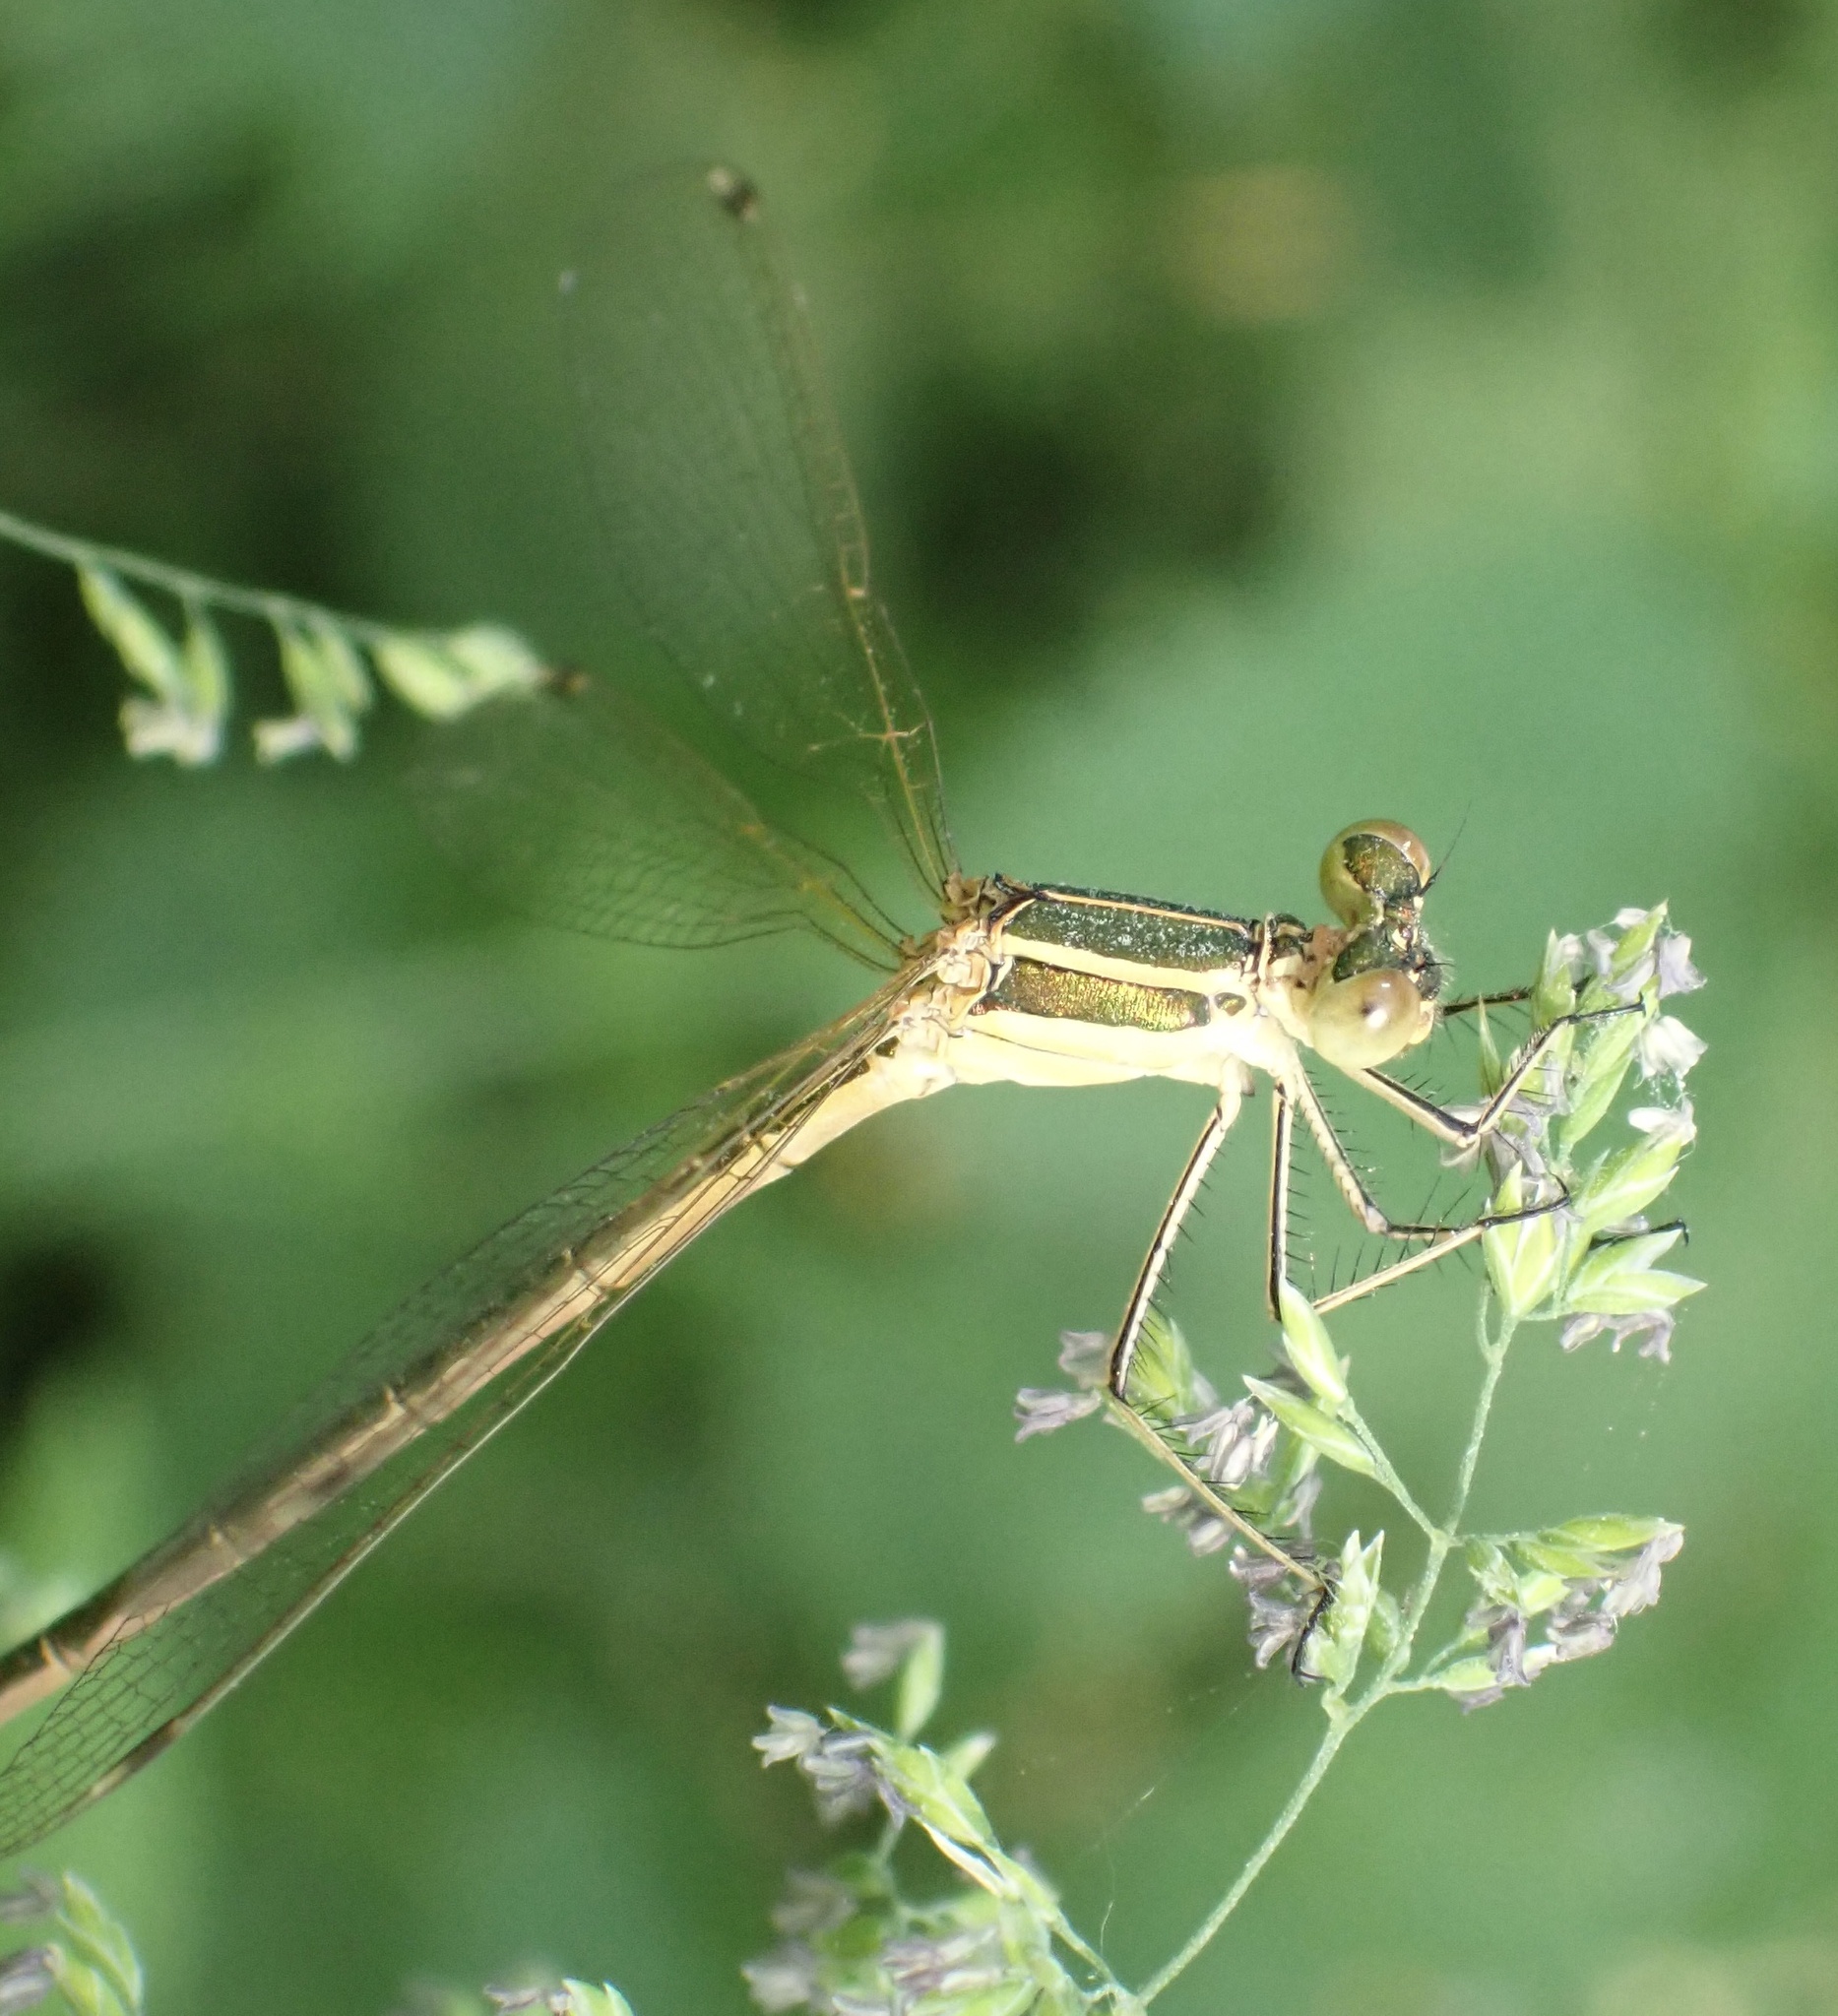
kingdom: Animalia
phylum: Arthropoda
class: Insecta
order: Odonata
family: Lestidae
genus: Lestes
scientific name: Lestes barbarus
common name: Migrant spreadwing
